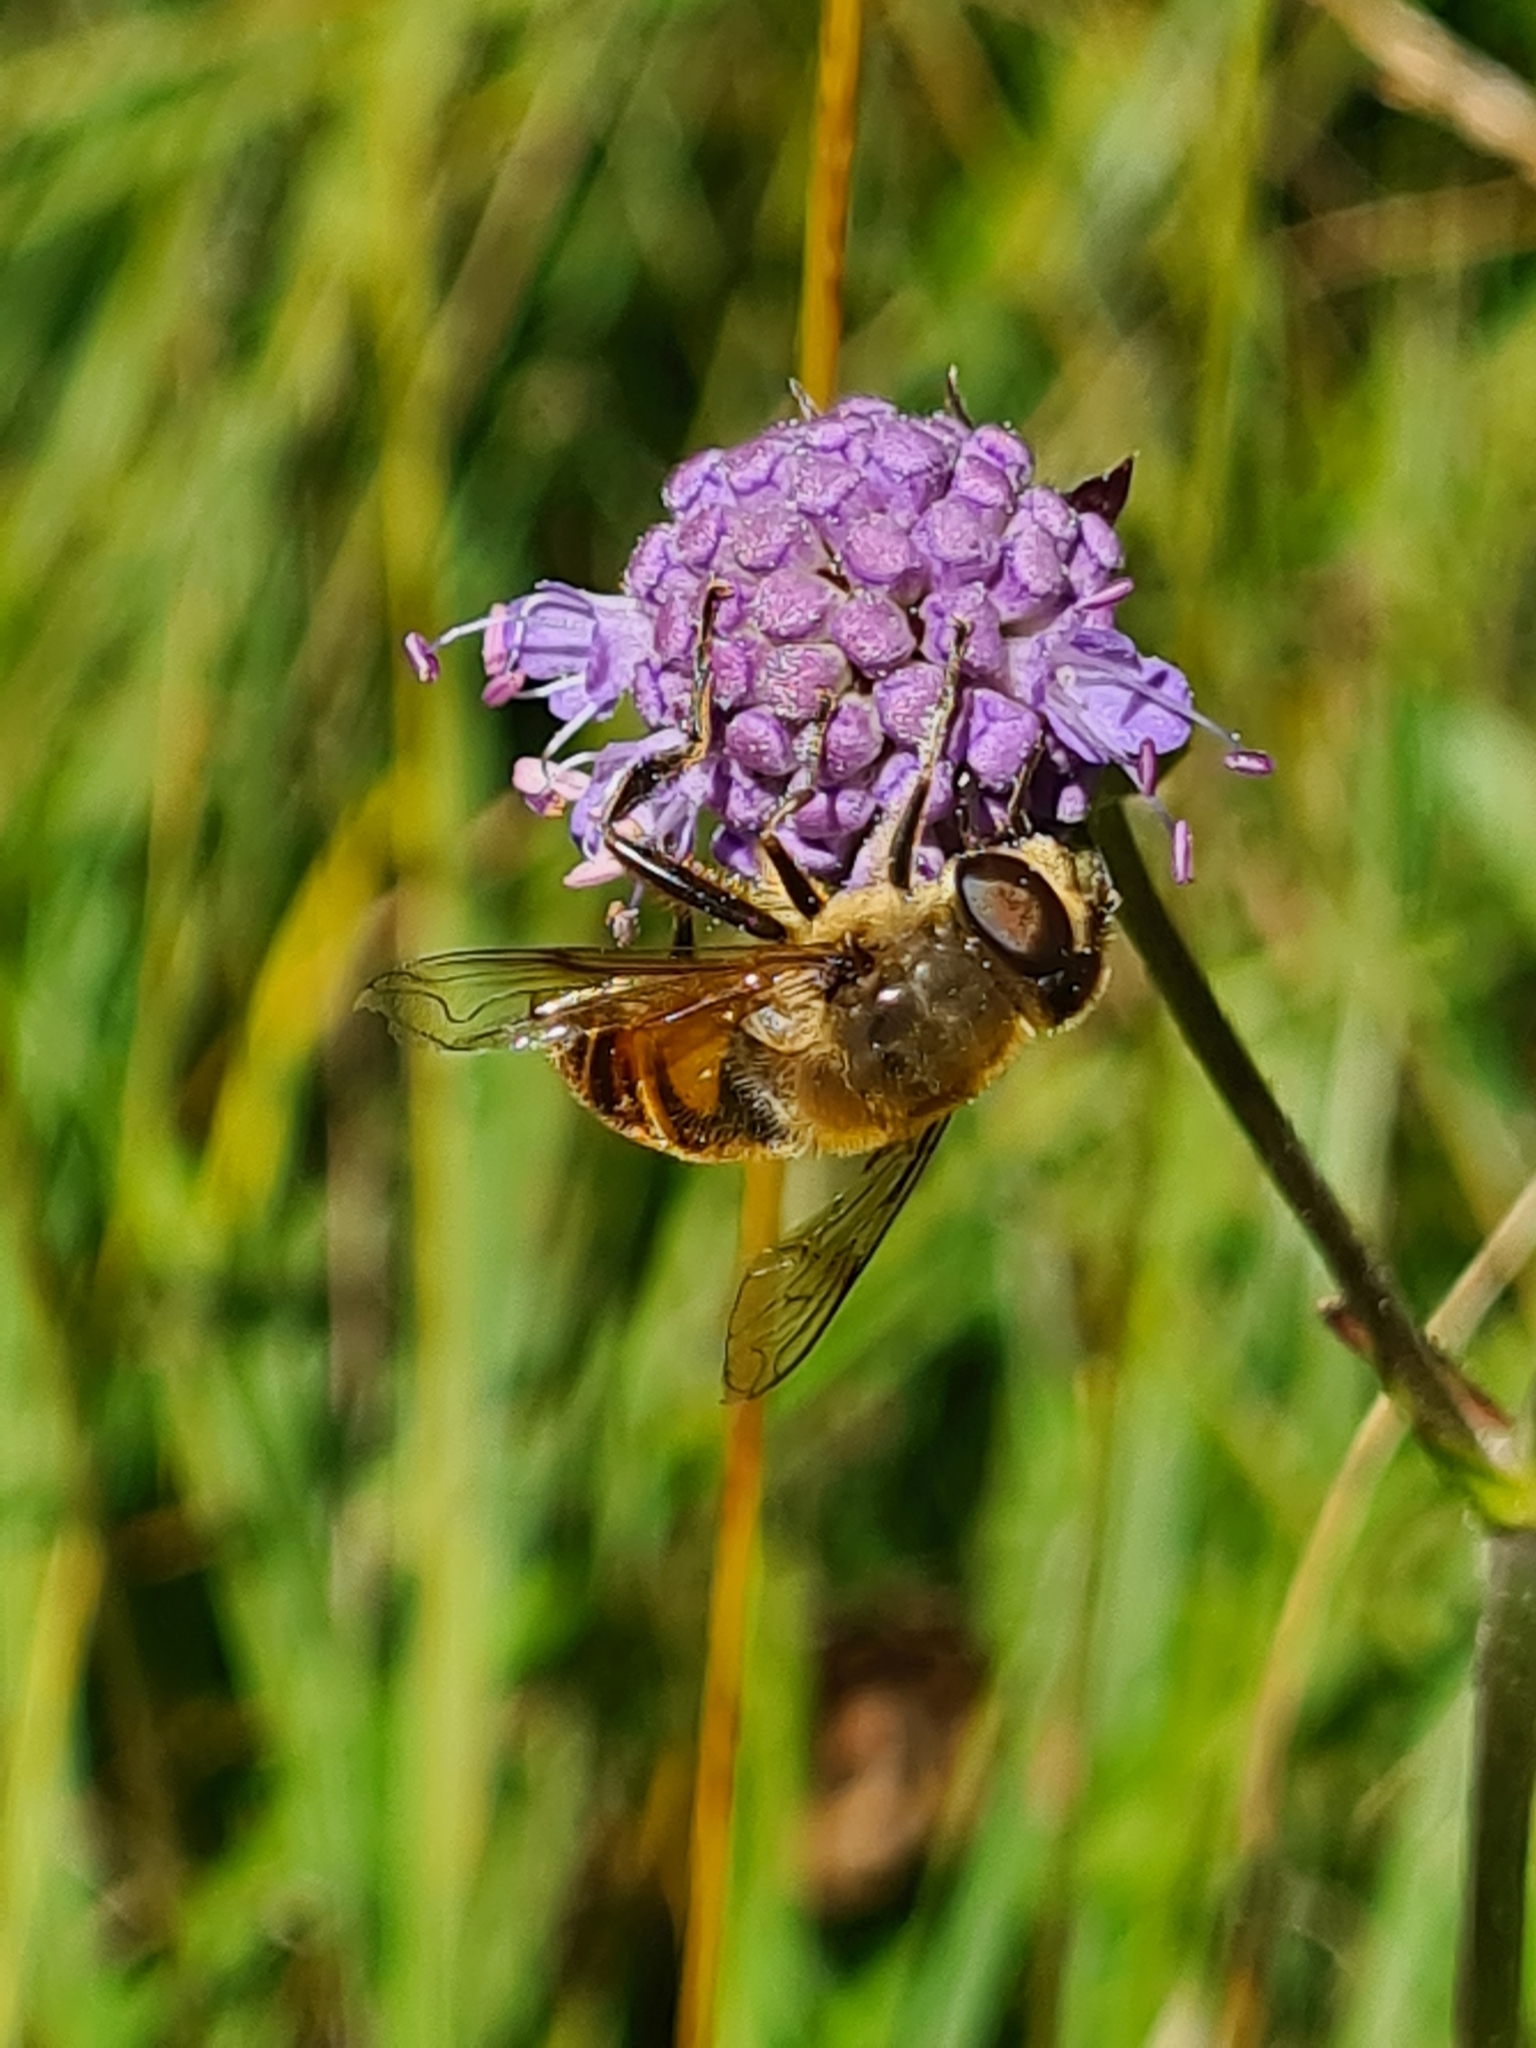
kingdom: Animalia
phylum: Arthropoda
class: Insecta
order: Diptera
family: Syrphidae
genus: Eristalis
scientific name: Eristalis tenax
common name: Drone fly
